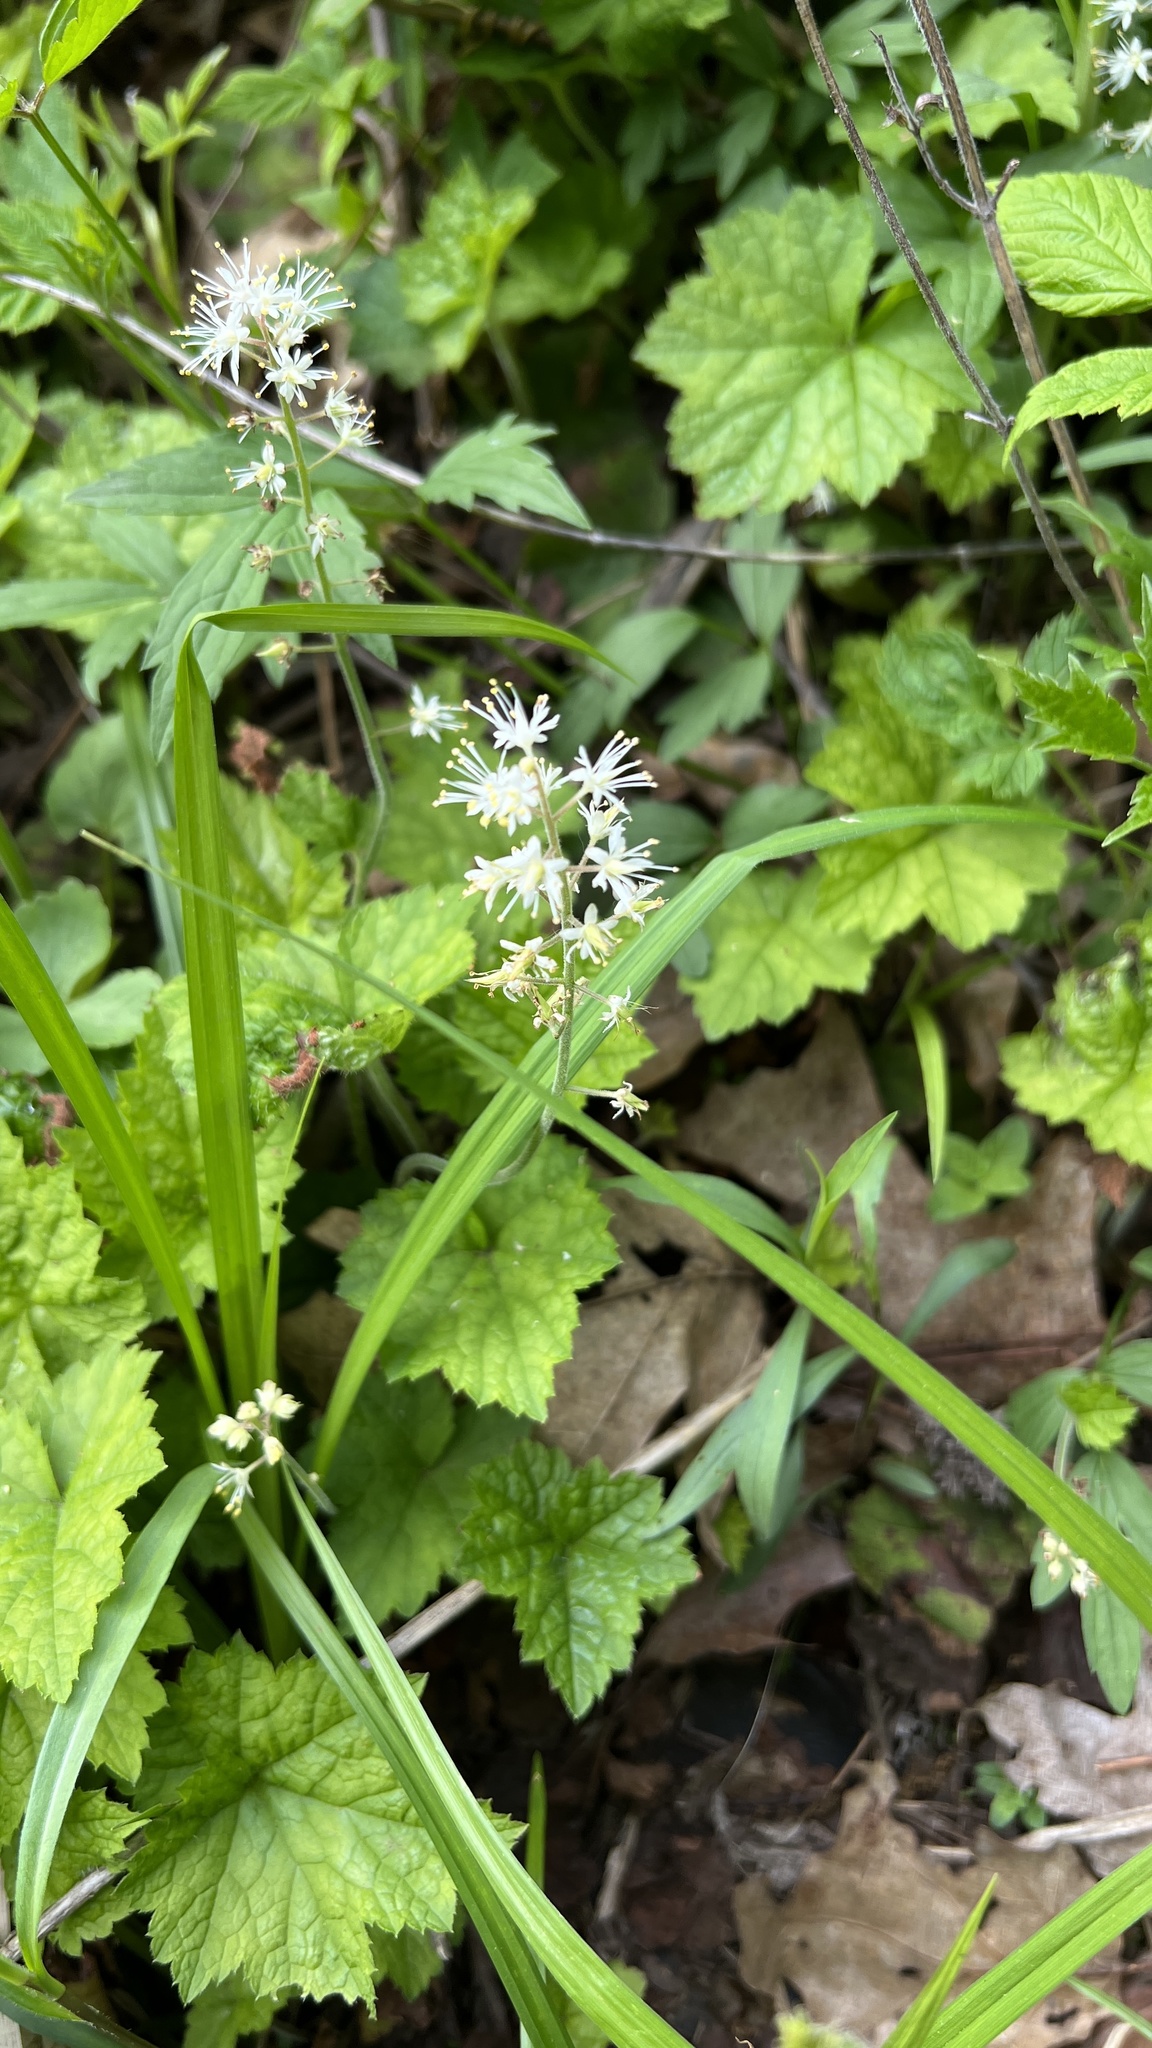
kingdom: Plantae
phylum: Tracheophyta
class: Magnoliopsida
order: Saxifragales
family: Saxifragaceae
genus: Tiarella
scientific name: Tiarella stolonifera
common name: Stoloniferous foamflower
